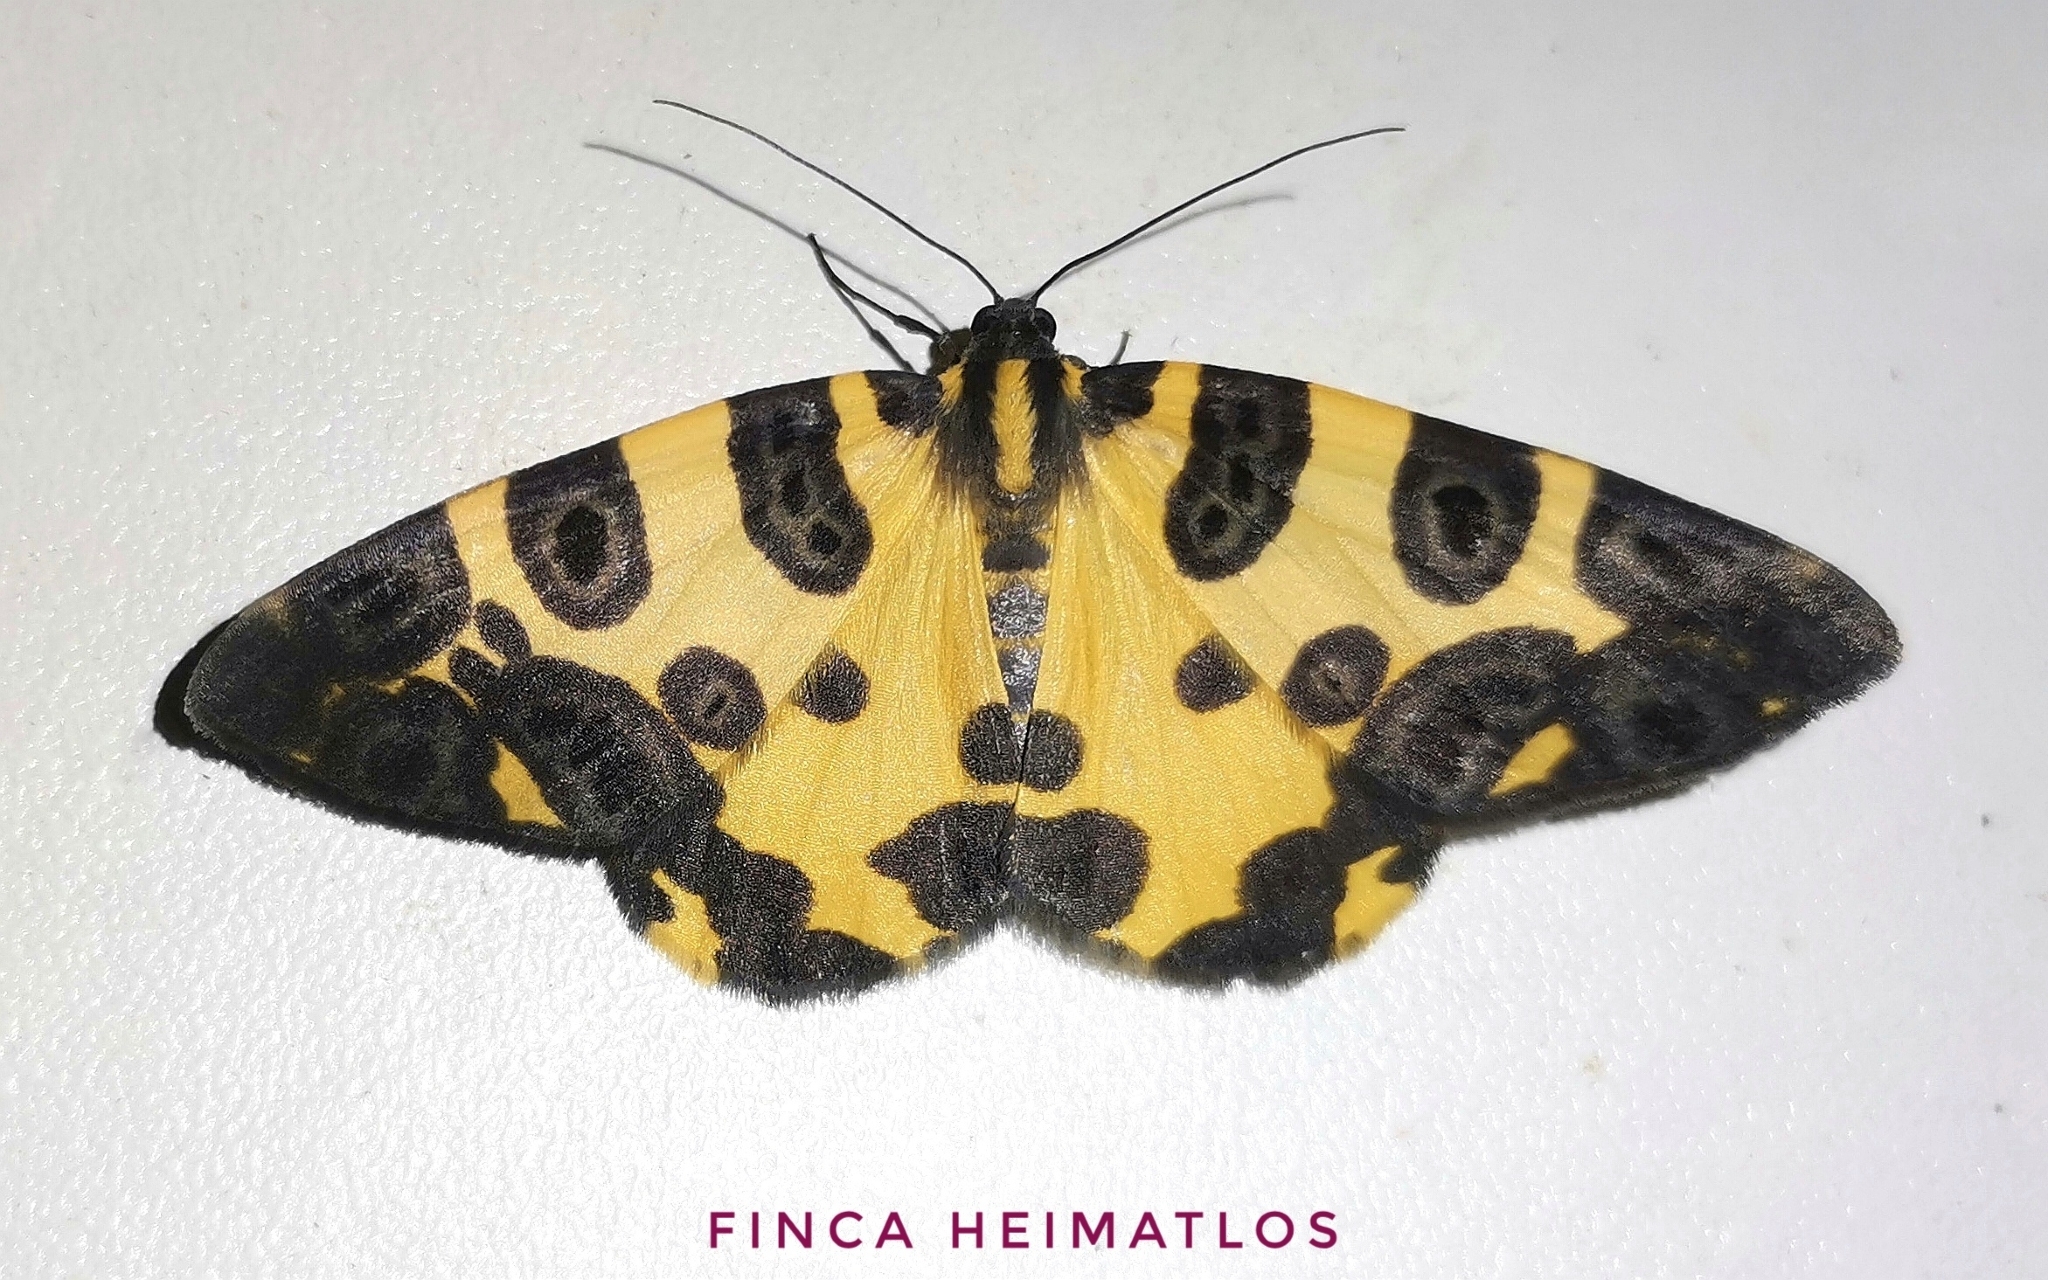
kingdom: Animalia
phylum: Arthropoda
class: Insecta
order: Lepidoptera
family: Geometridae
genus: Pantherodes
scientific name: Pantherodes conglomerata
